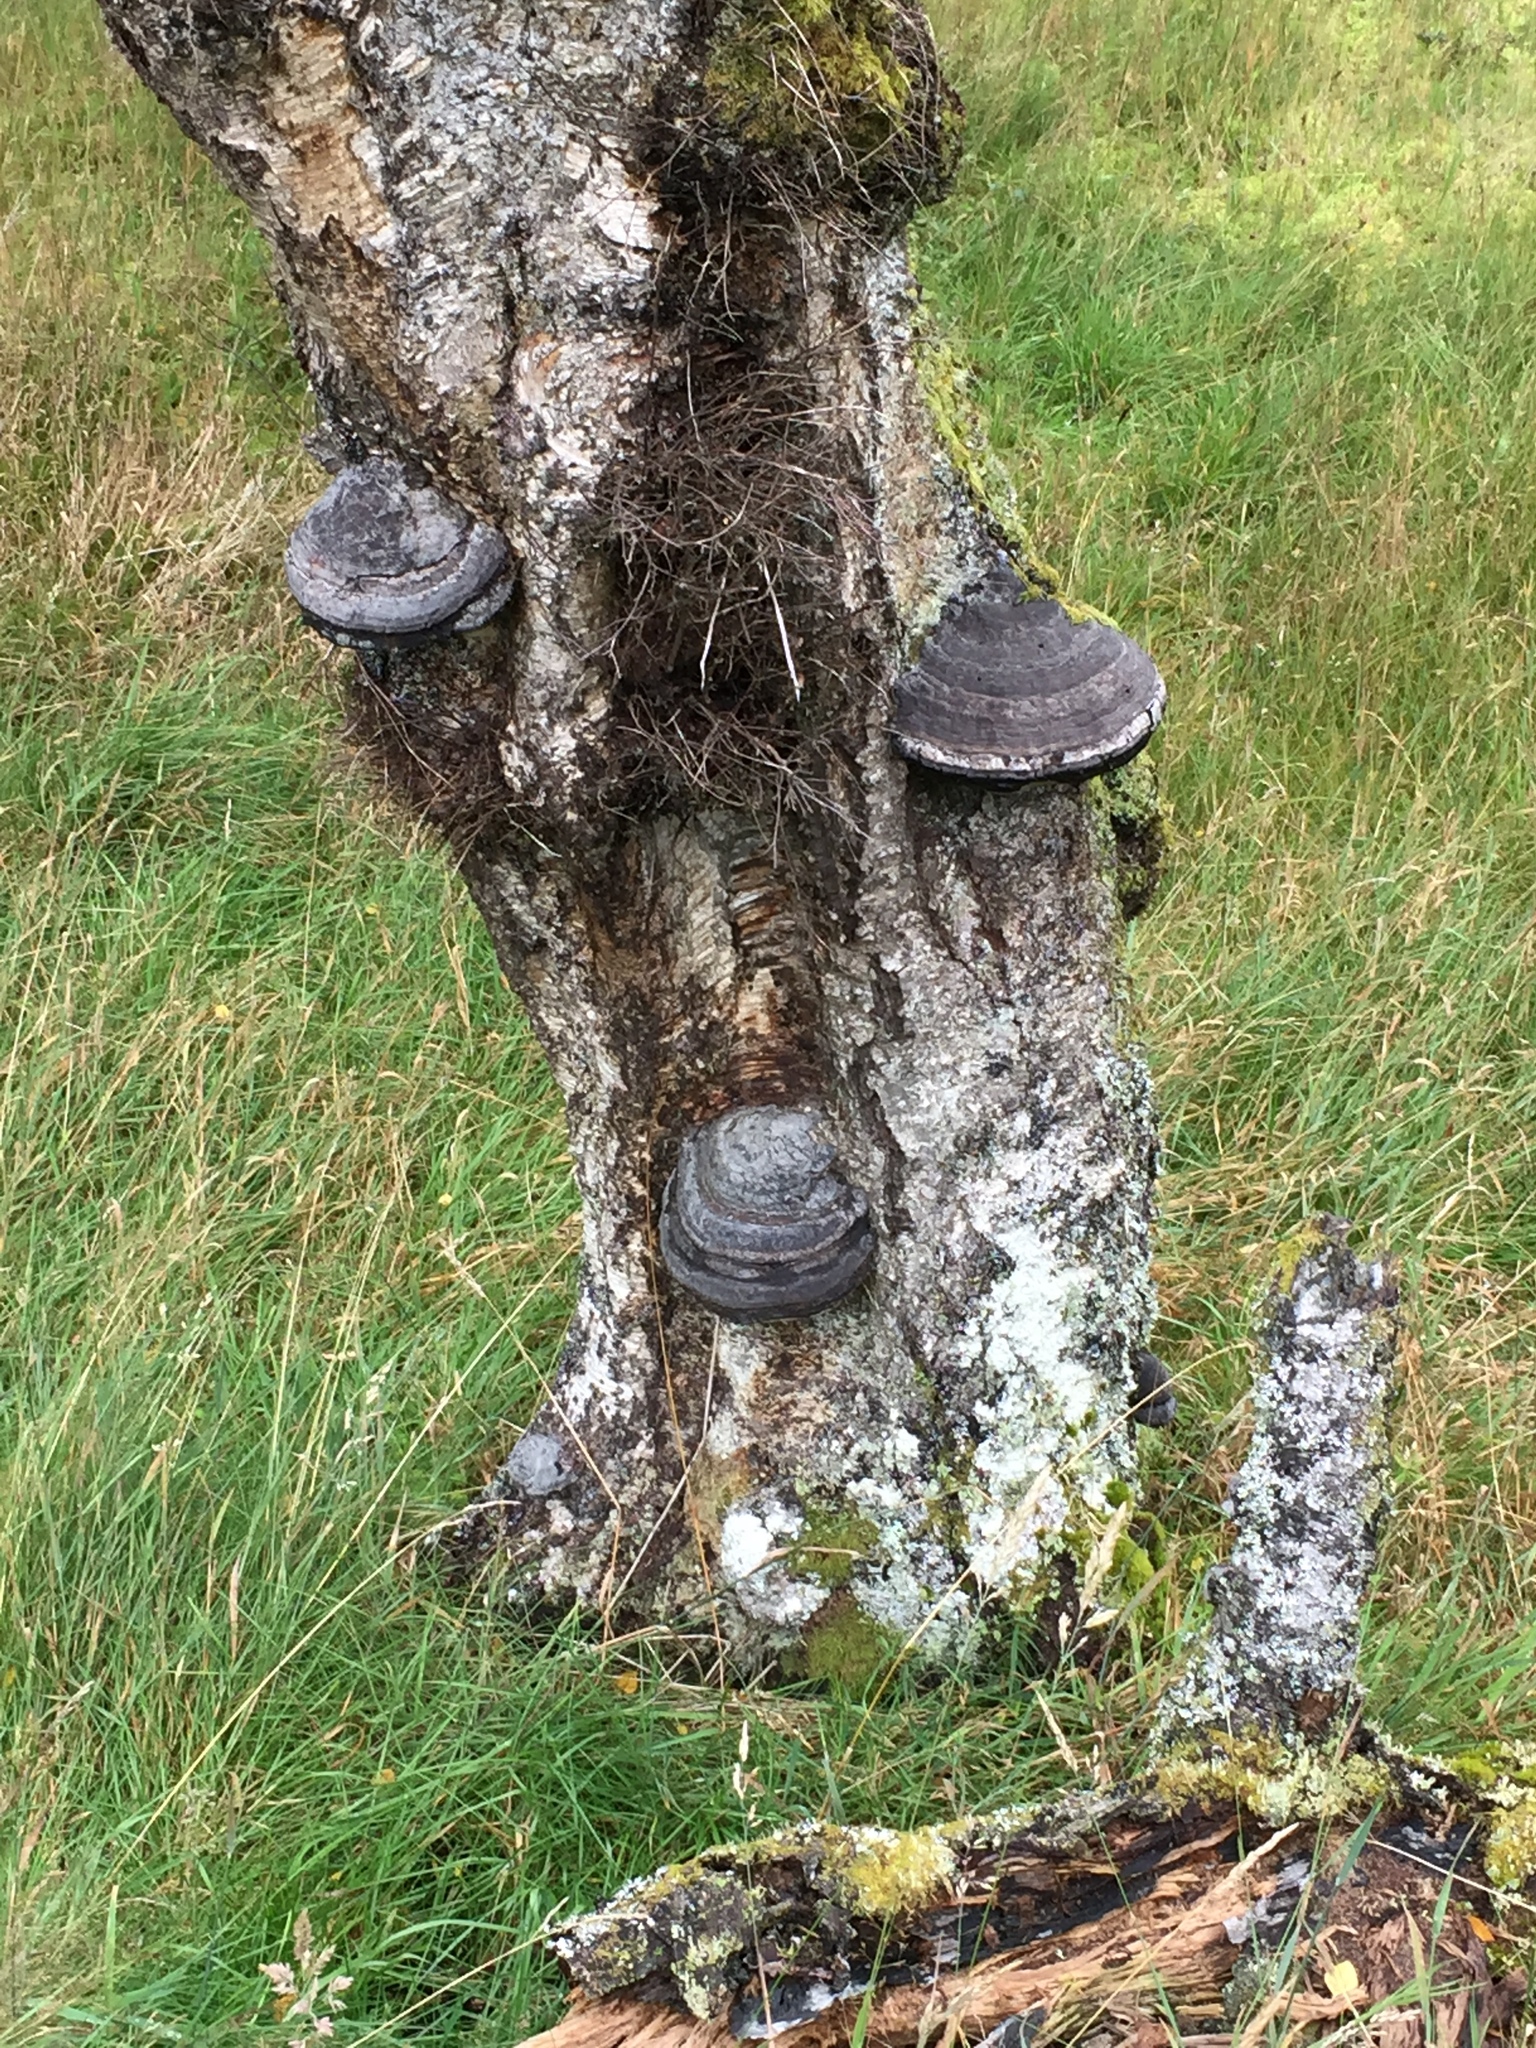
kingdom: Fungi
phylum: Basidiomycota
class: Agaricomycetes
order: Polyporales
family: Polyporaceae
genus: Fomes
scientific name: Fomes fomentarius
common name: Hoof fungus
